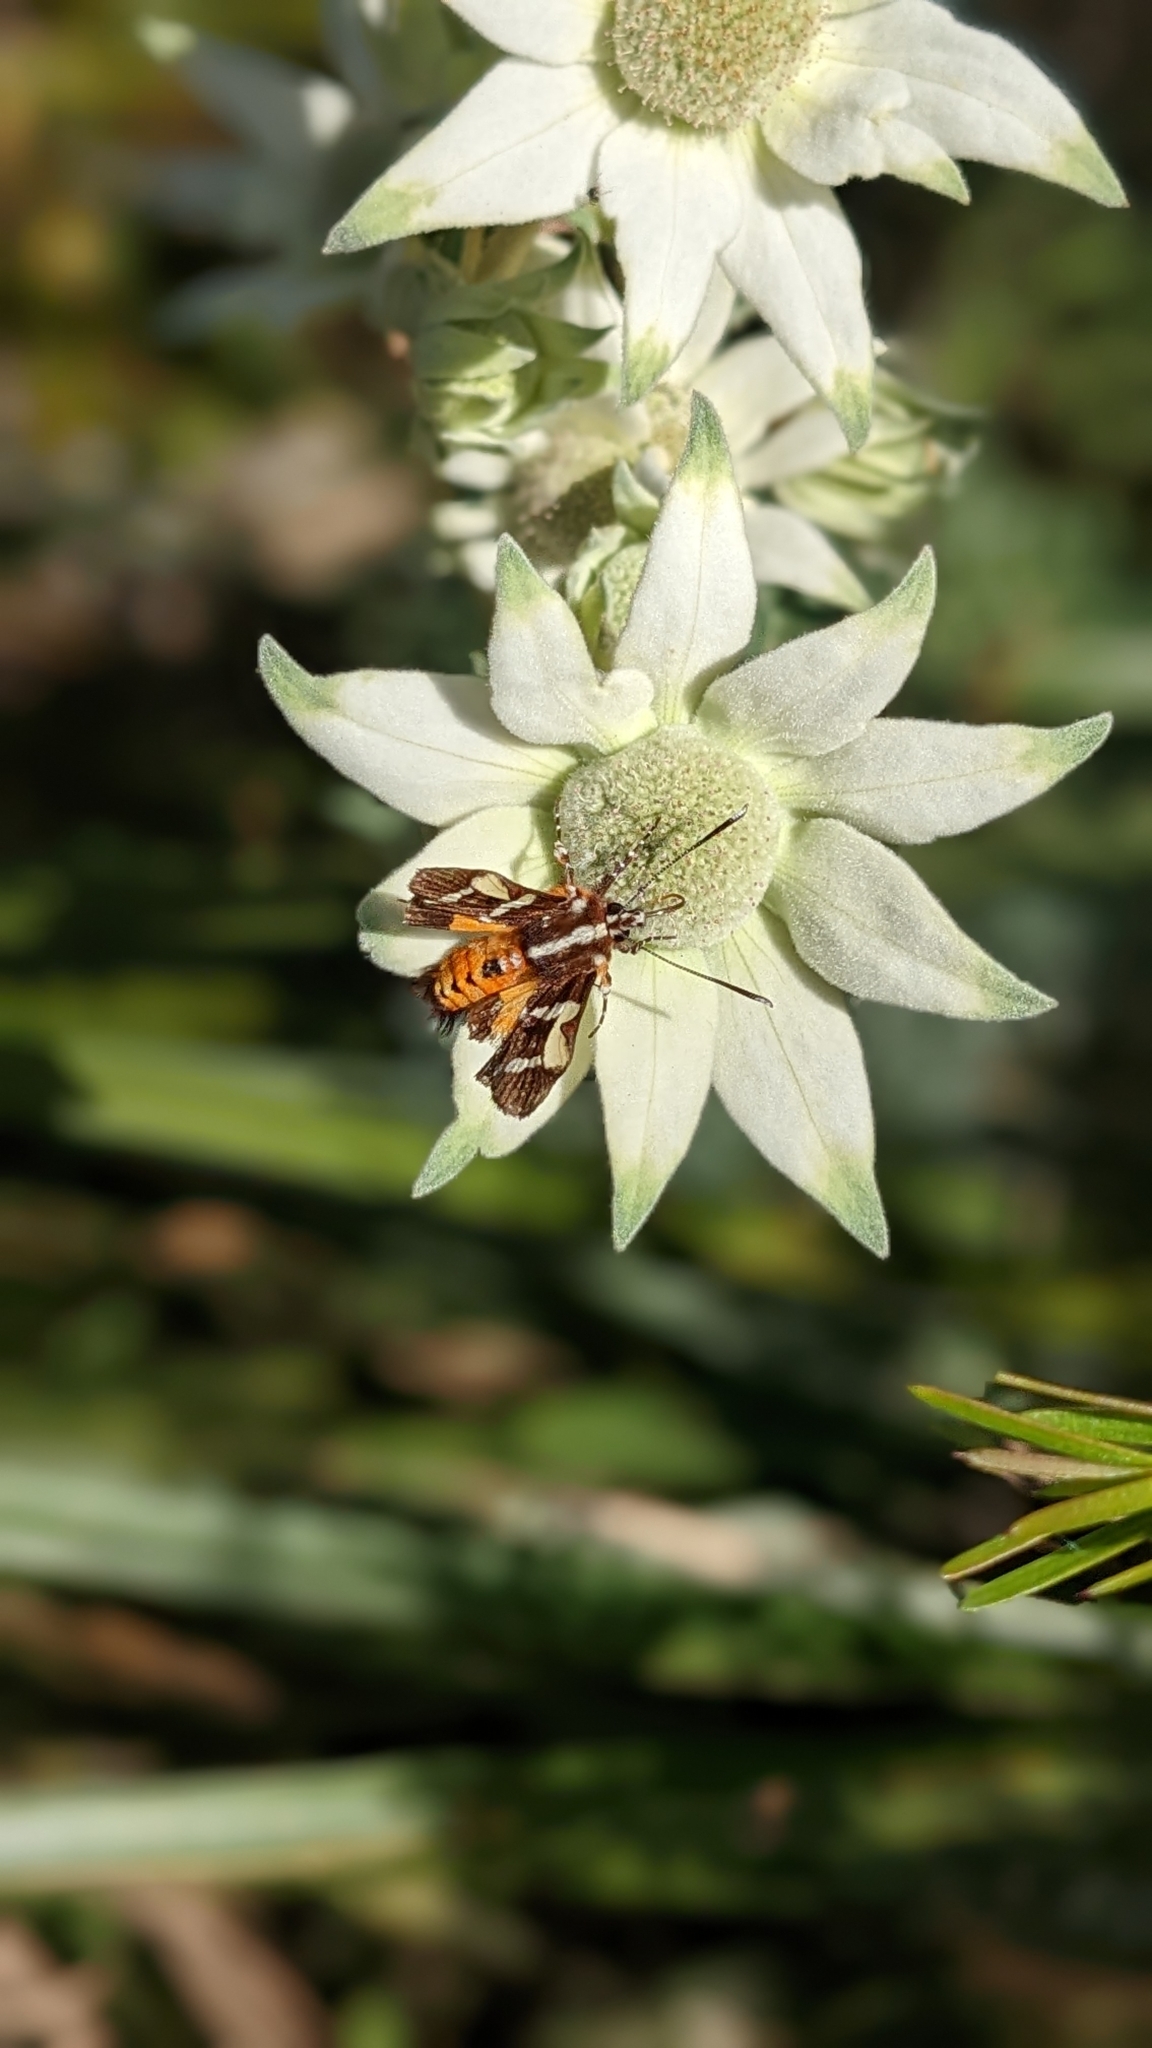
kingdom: Animalia
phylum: Arthropoda
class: Insecta
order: Lepidoptera
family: Noctuidae
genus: Hecatesia
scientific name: Hecatesia fenestrata
